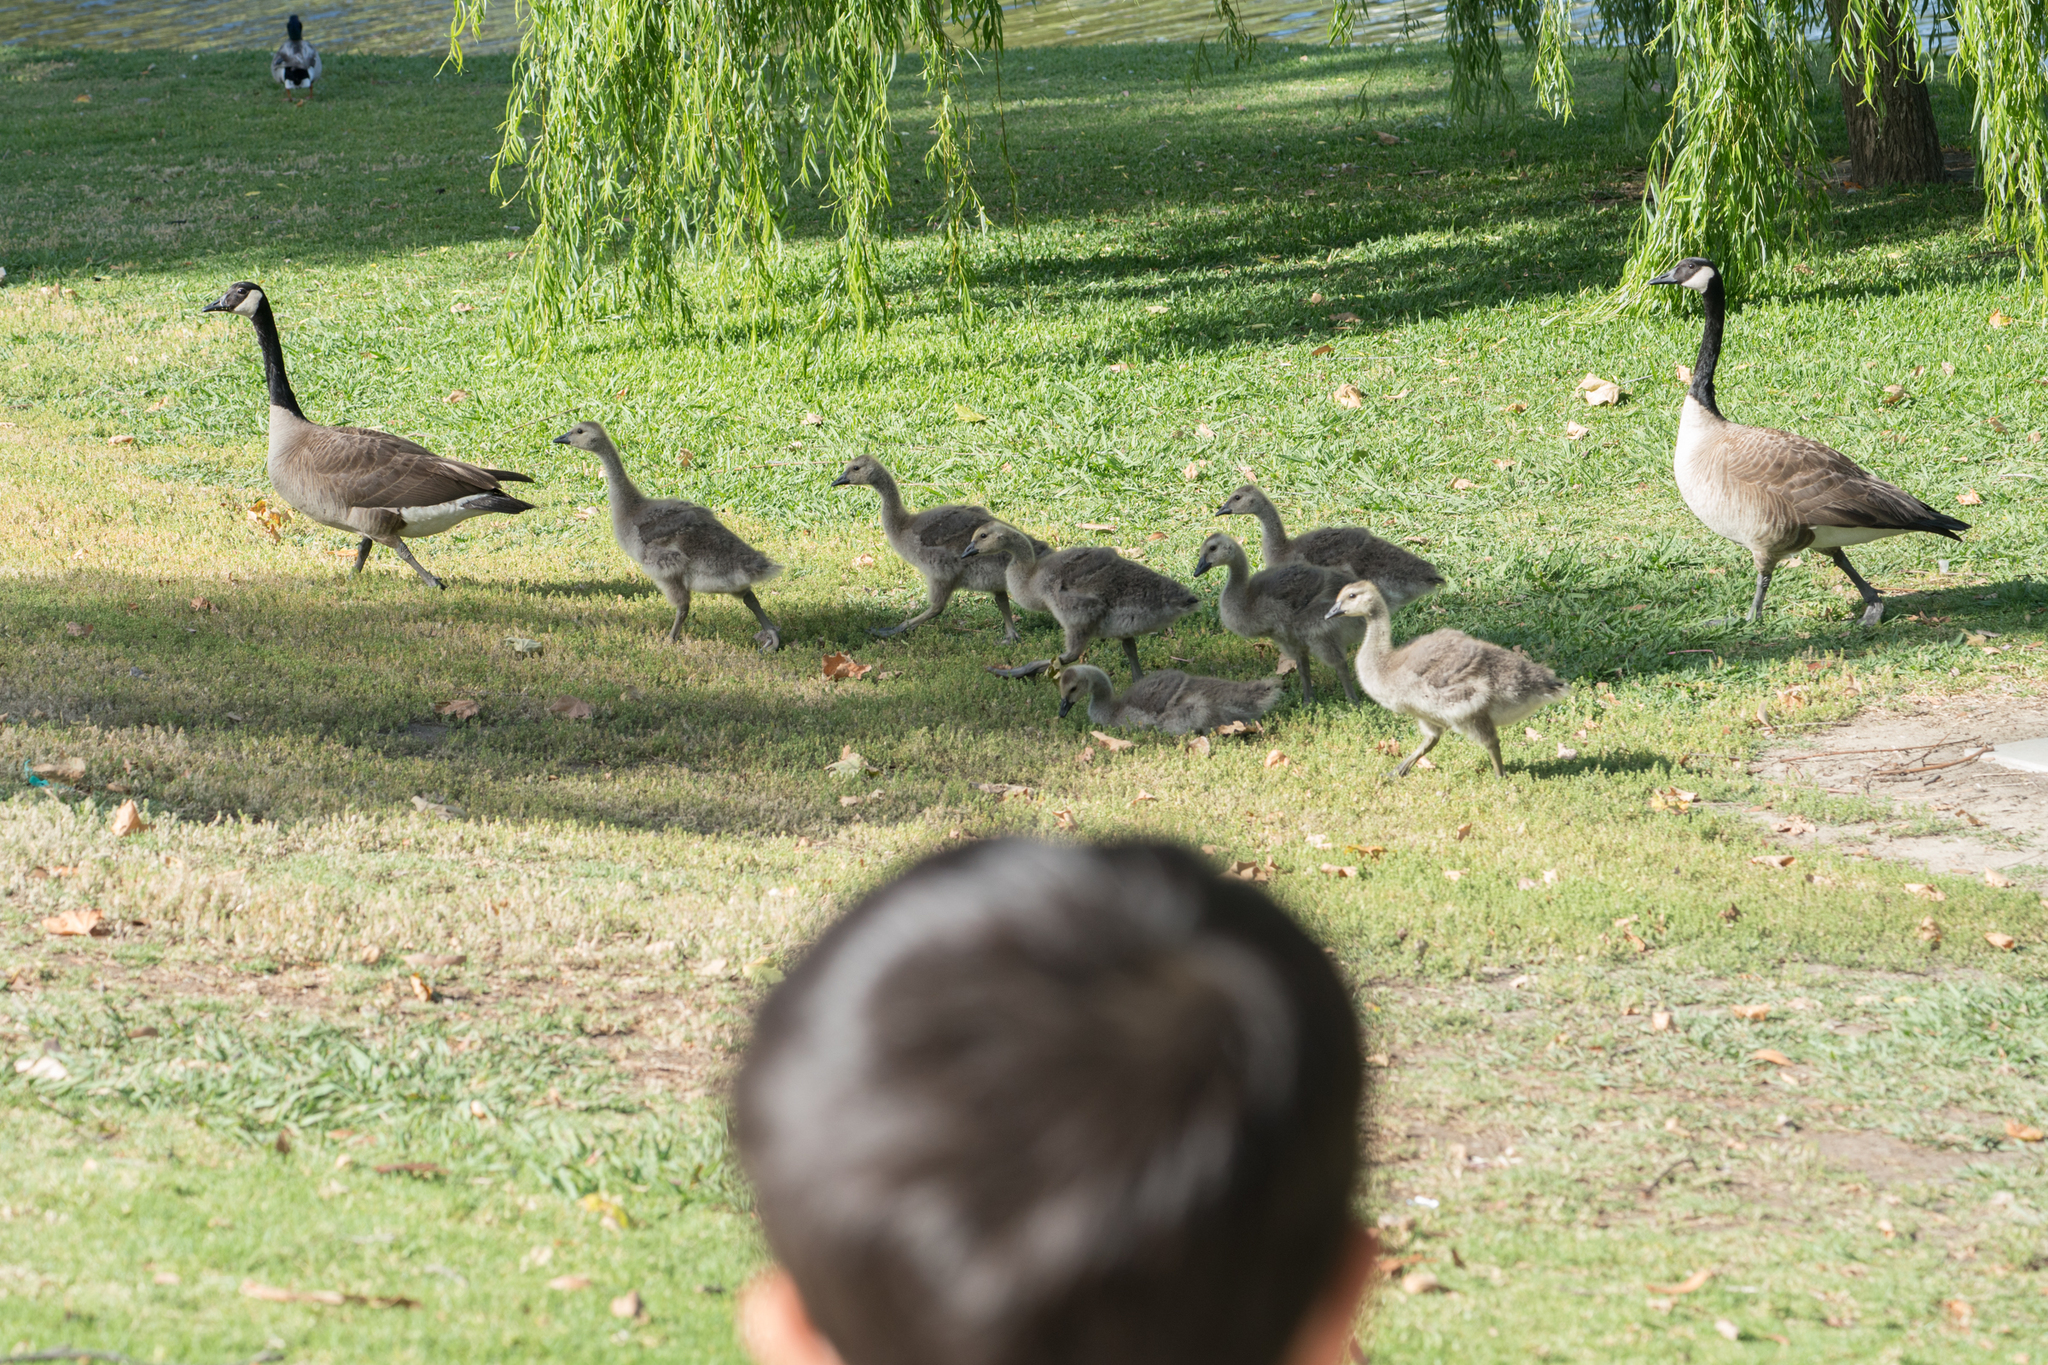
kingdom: Animalia
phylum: Chordata
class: Aves
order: Anseriformes
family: Anatidae
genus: Branta
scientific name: Branta canadensis
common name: Canada goose
